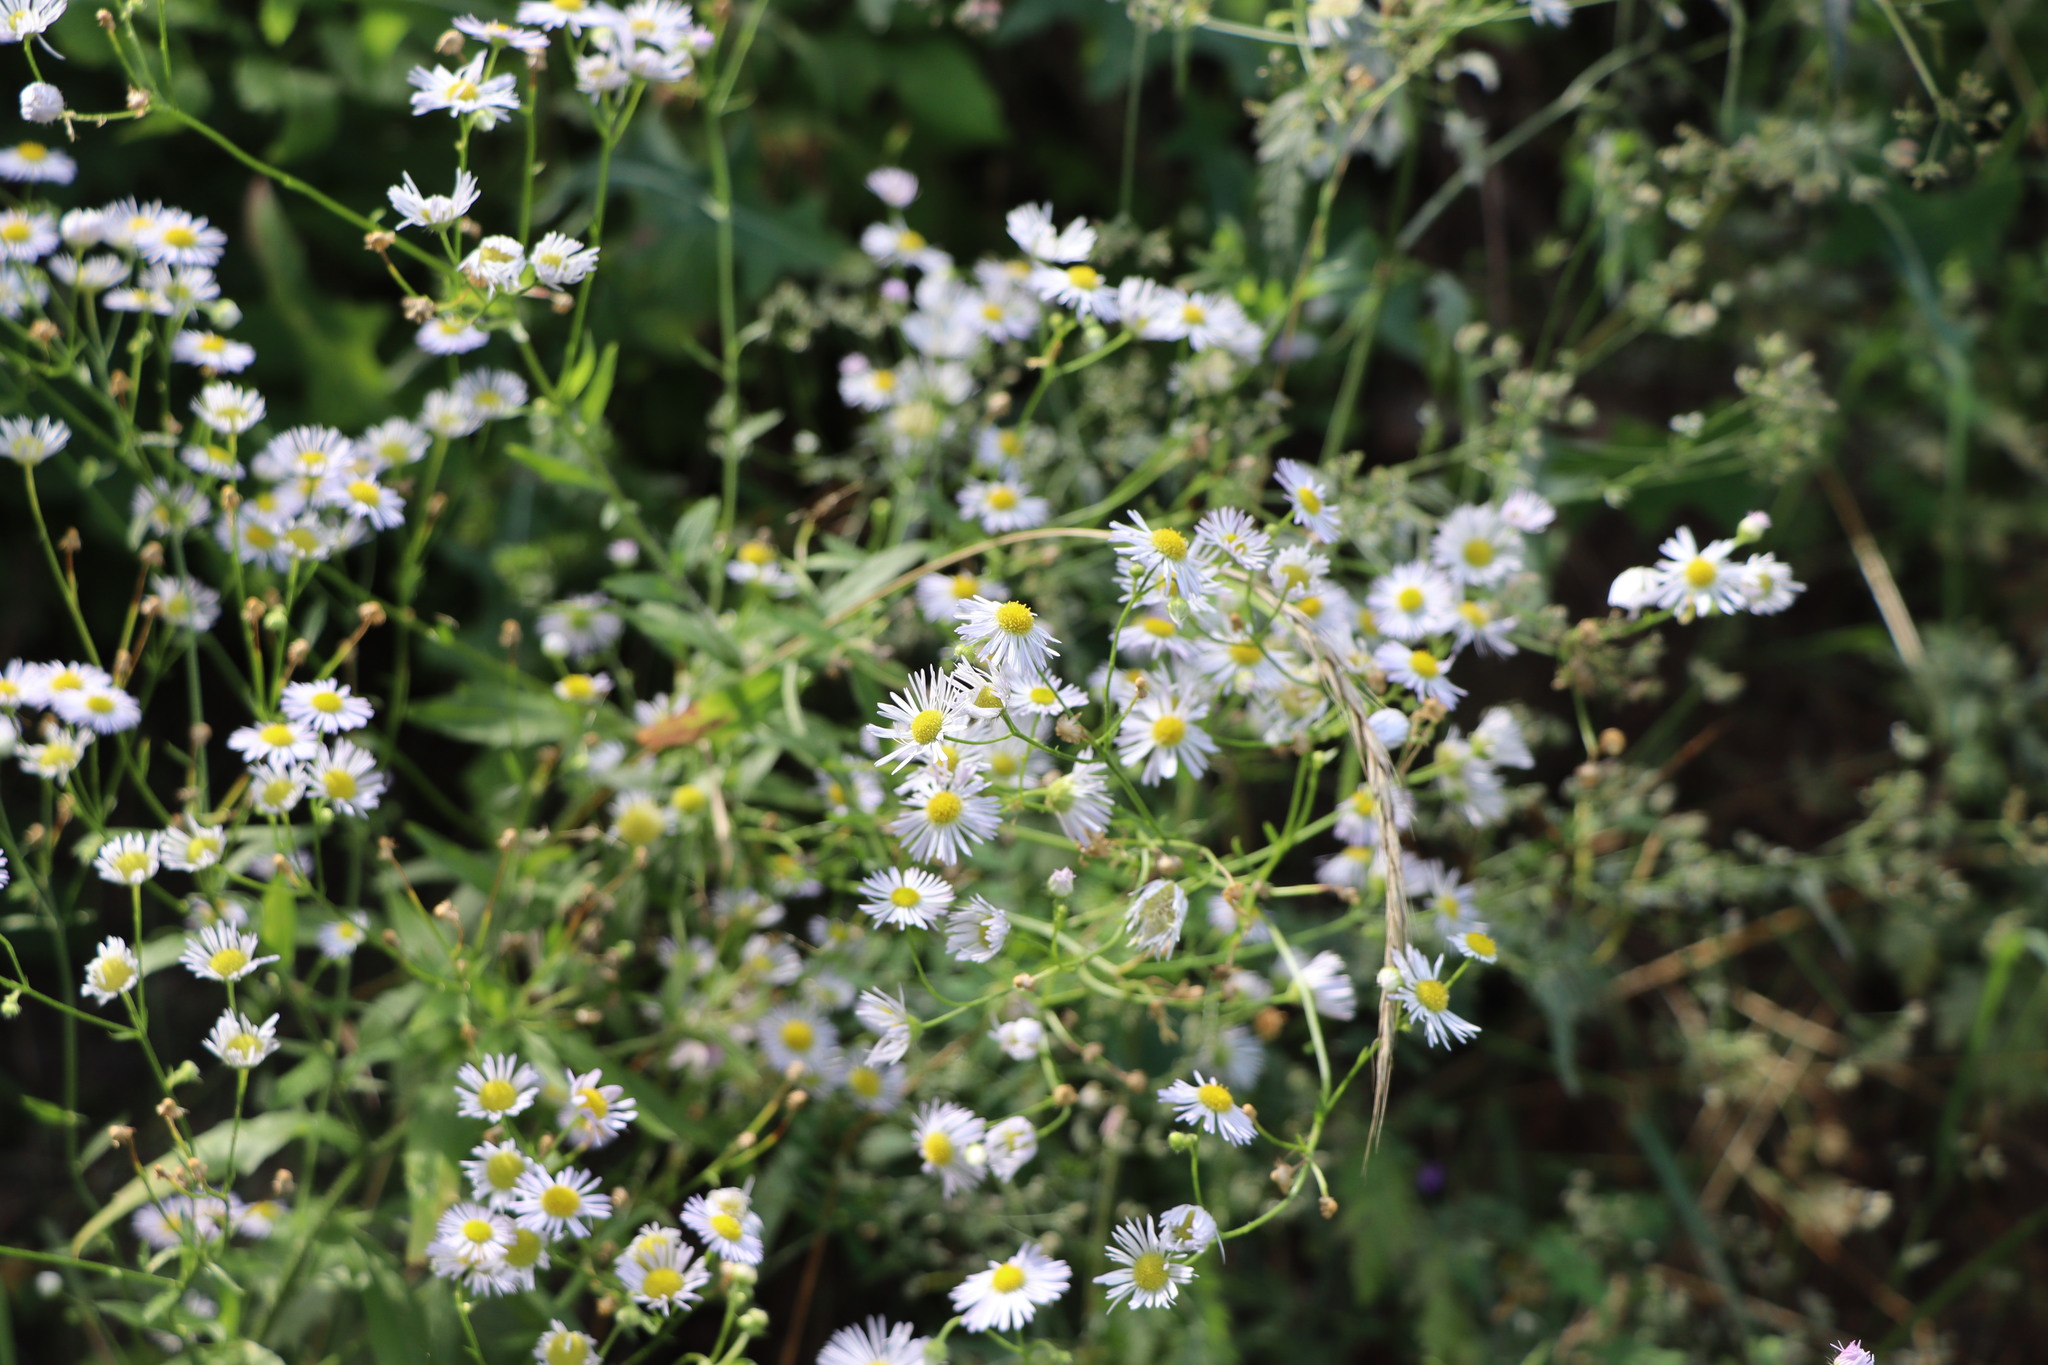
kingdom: Plantae
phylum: Tracheophyta
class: Magnoliopsida
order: Asterales
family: Asteraceae
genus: Erigeron
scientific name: Erigeron annuus
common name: Tall fleabane
